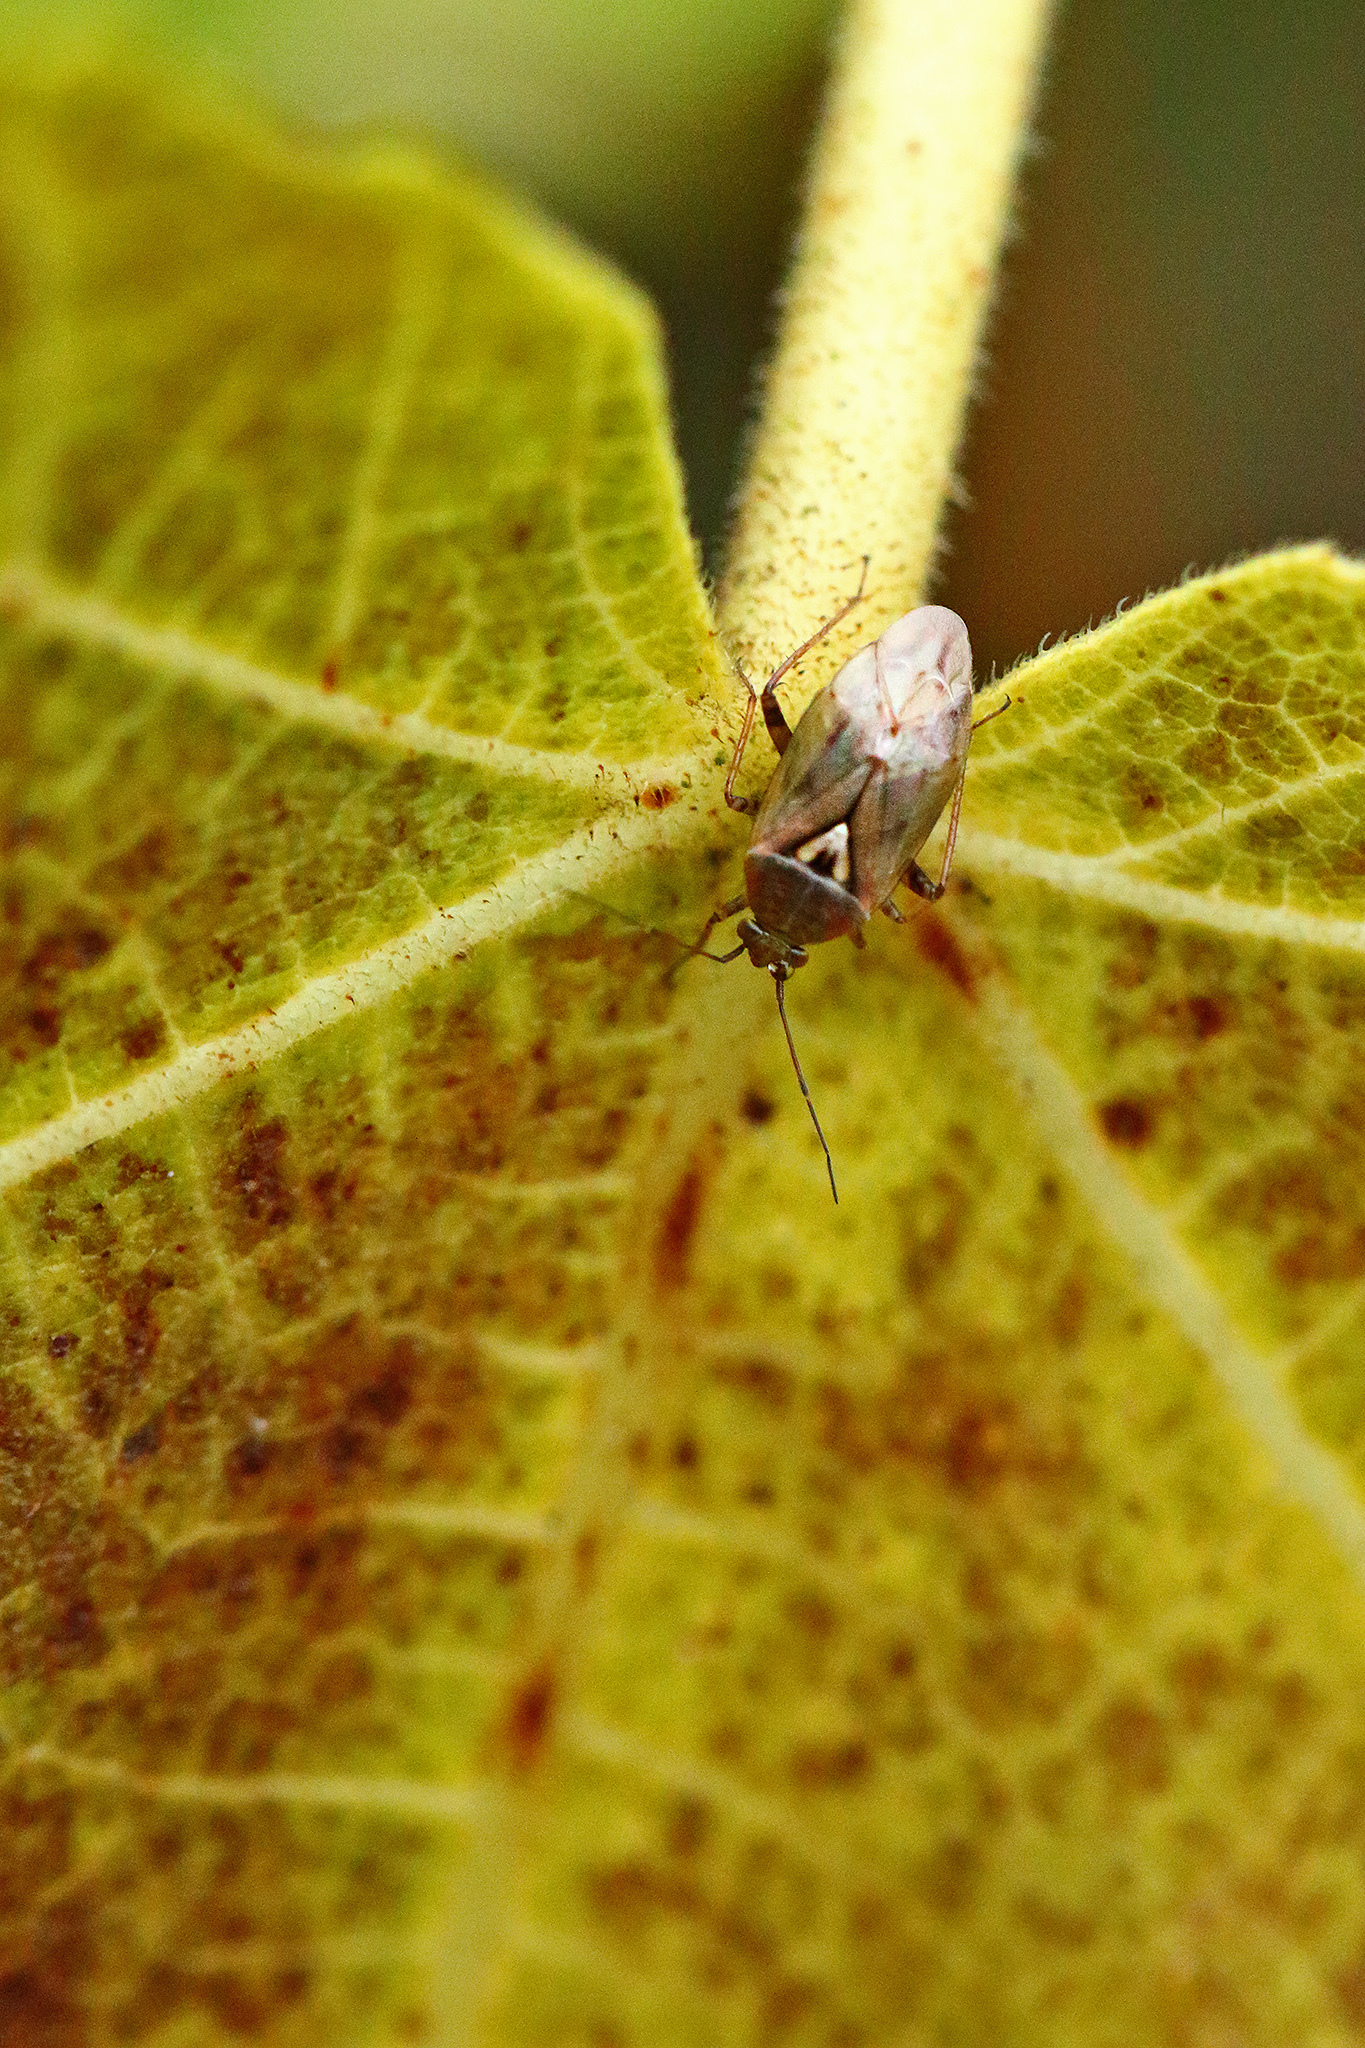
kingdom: Animalia
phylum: Arthropoda
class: Insecta
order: Hemiptera
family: Miridae
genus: Lygus
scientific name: Lygus rugulipennis
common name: European tarnished plant bug
